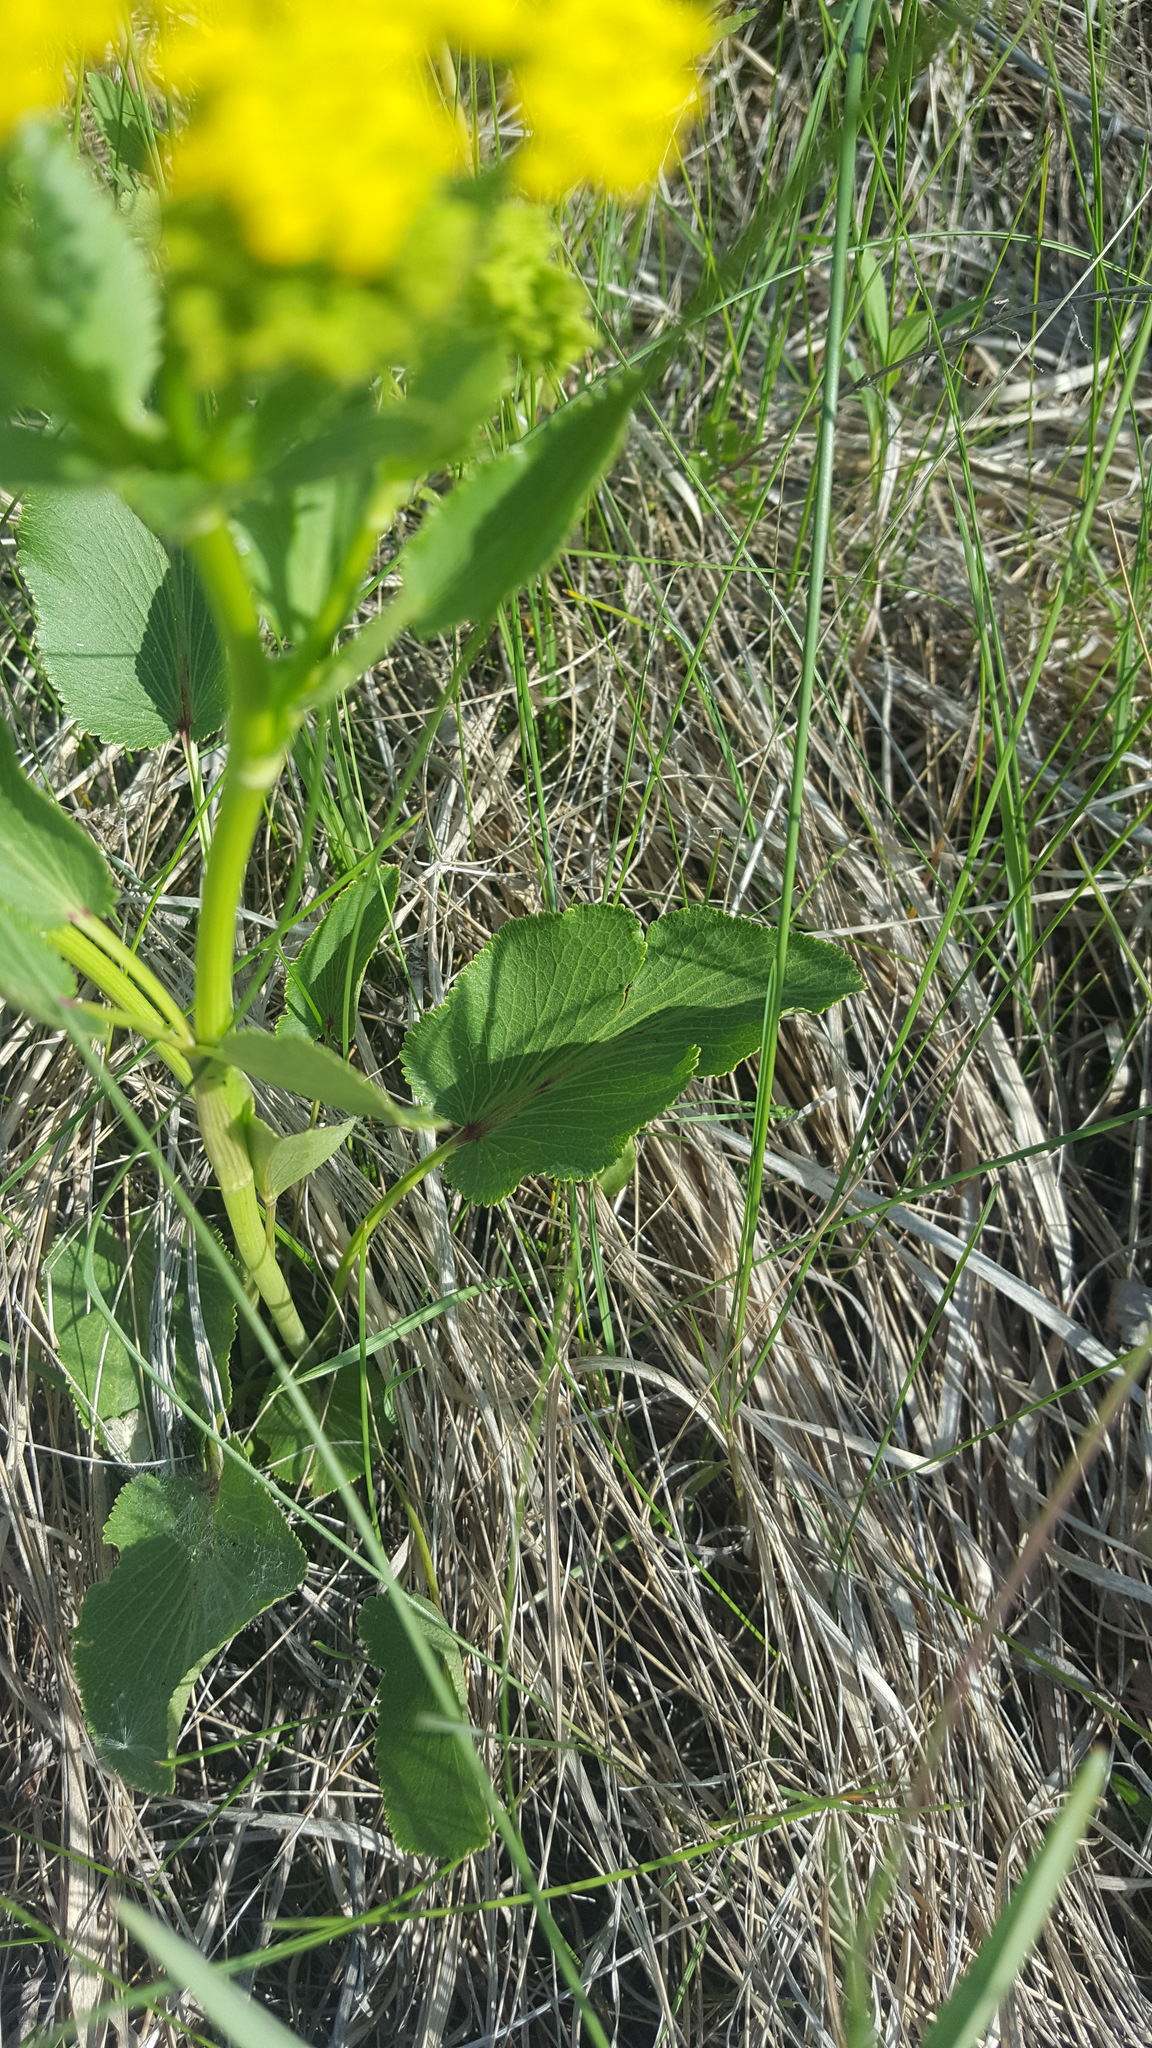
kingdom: Plantae
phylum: Tracheophyta
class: Magnoliopsida
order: Apiales
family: Apiaceae
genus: Zizia
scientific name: Zizia aptera
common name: Heart-leaved alexanders
